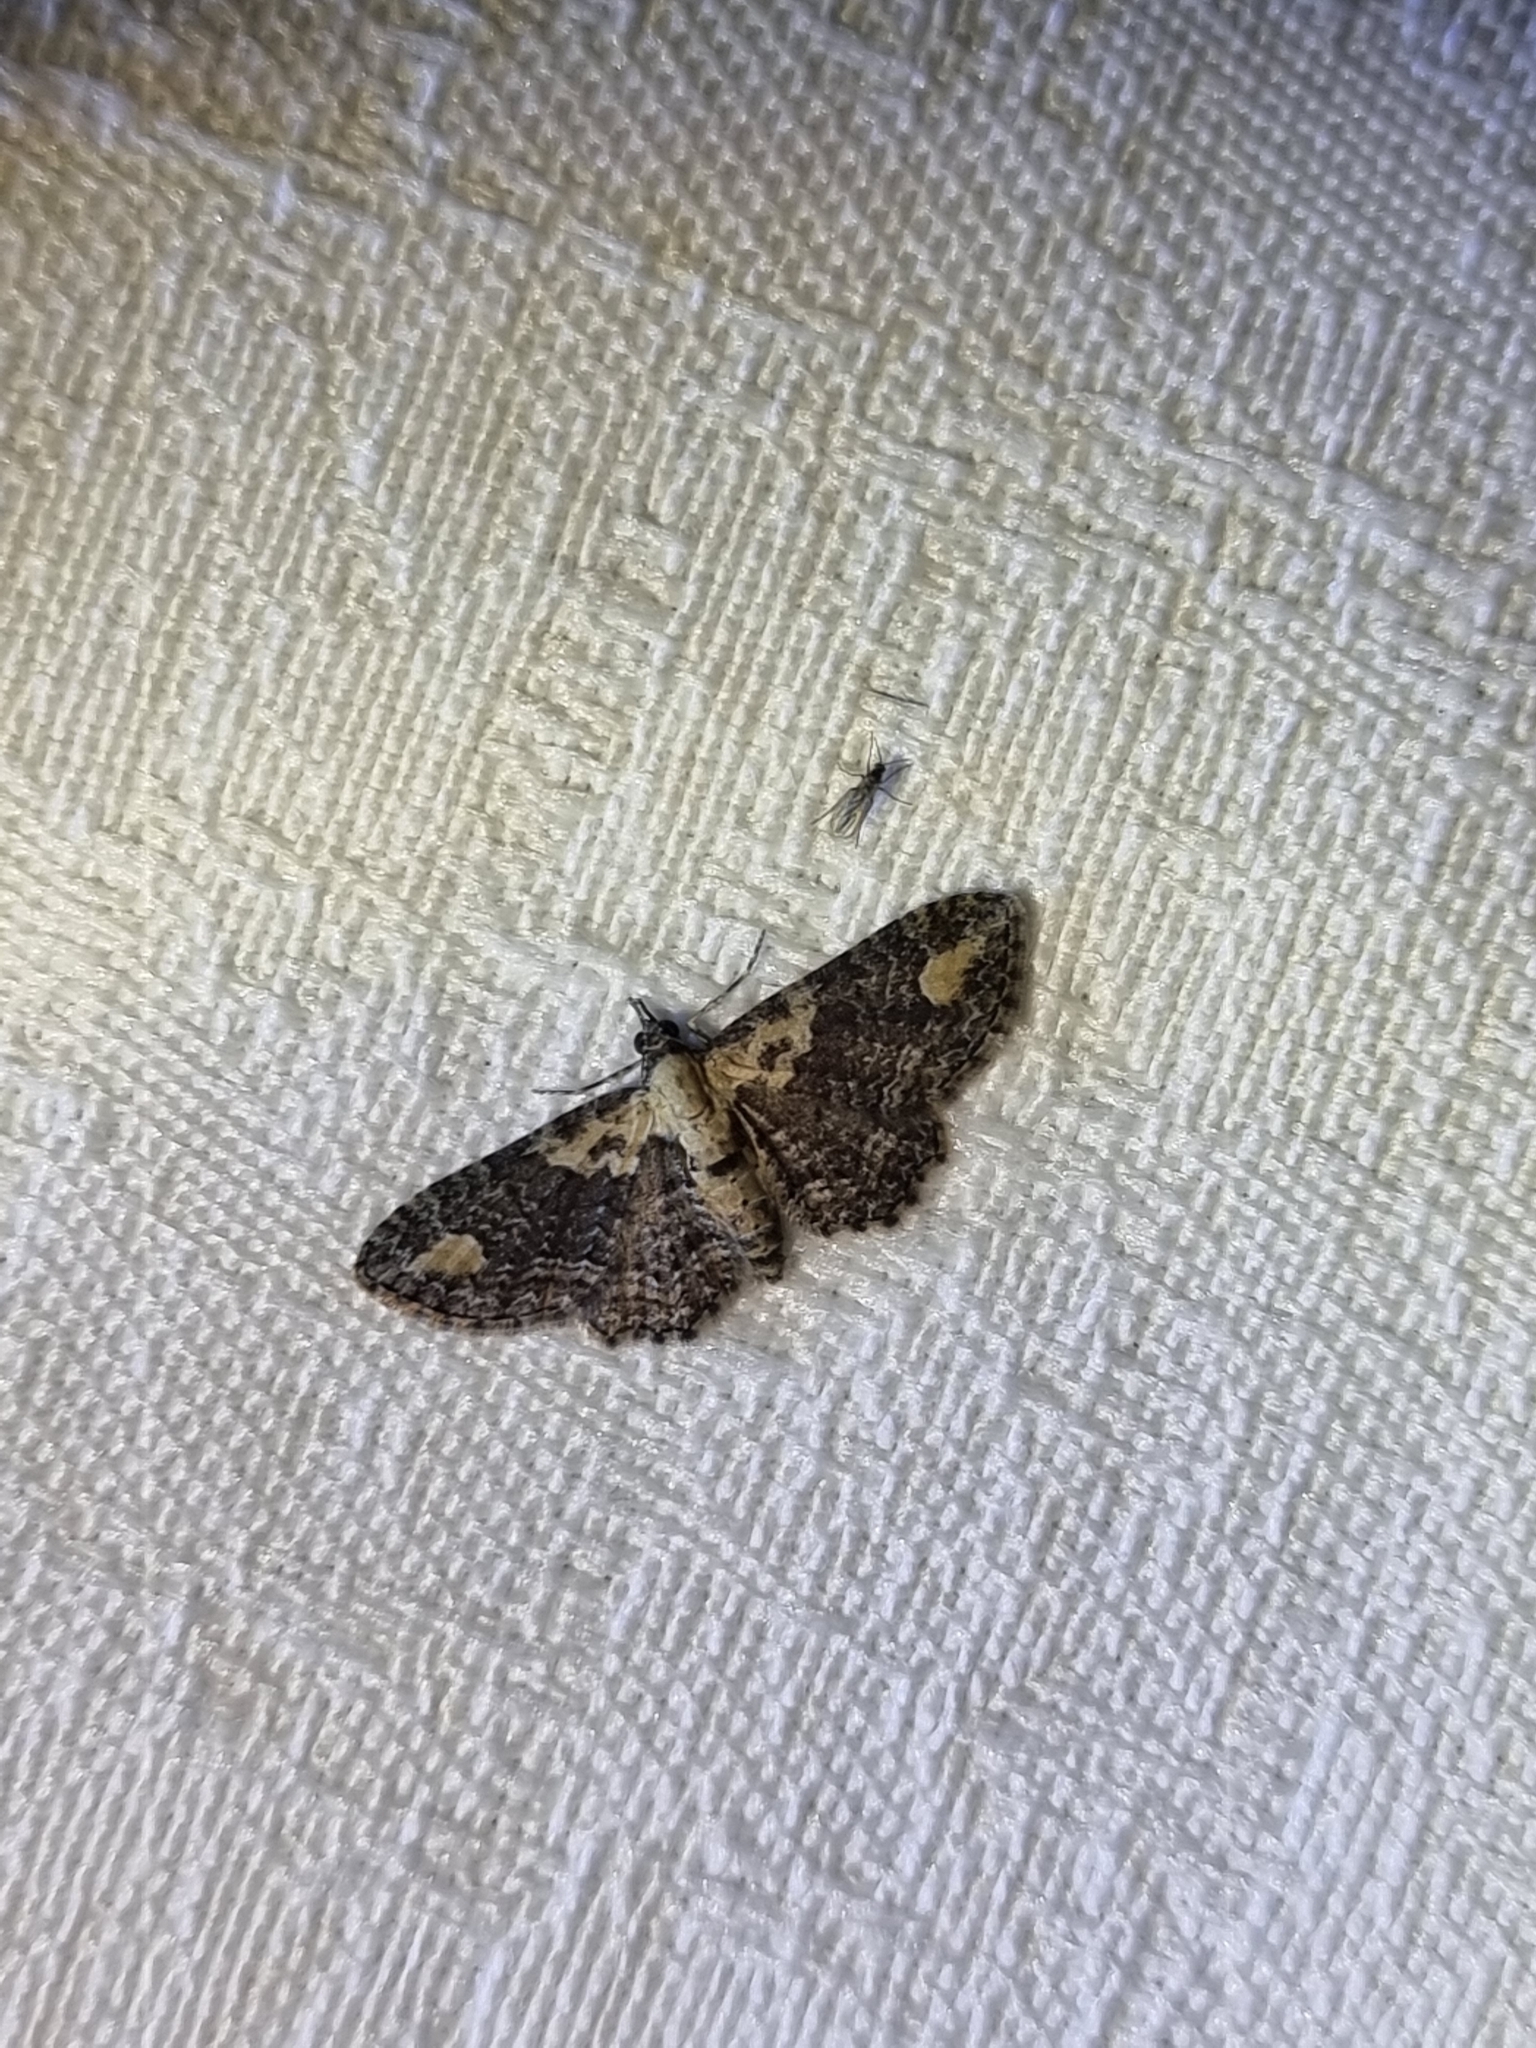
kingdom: Animalia
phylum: Arthropoda
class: Insecta
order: Lepidoptera
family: Geometridae
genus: Pasiphilodes
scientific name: Pasiphilodes testulata
